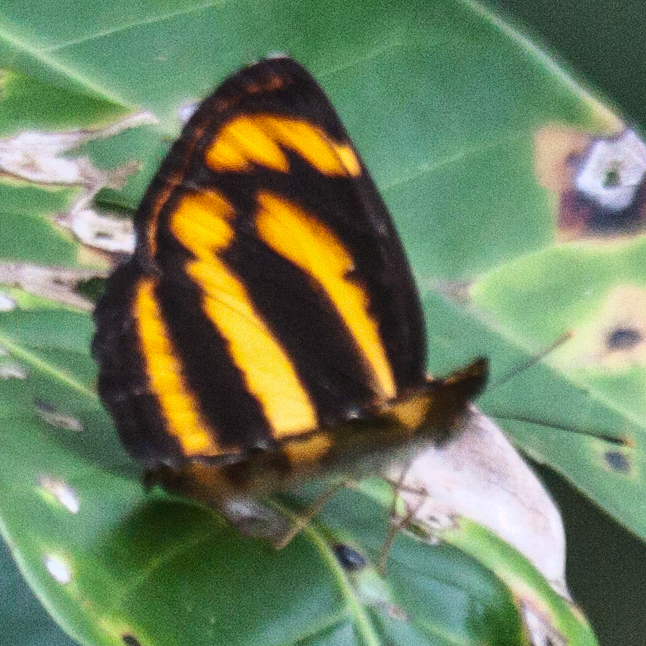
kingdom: Animalia
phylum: Arthropoda
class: Insecta
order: Lepidoptera
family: Nymphalidae
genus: Pantoporia
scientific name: Pantoporia hordonia
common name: Common lascar
